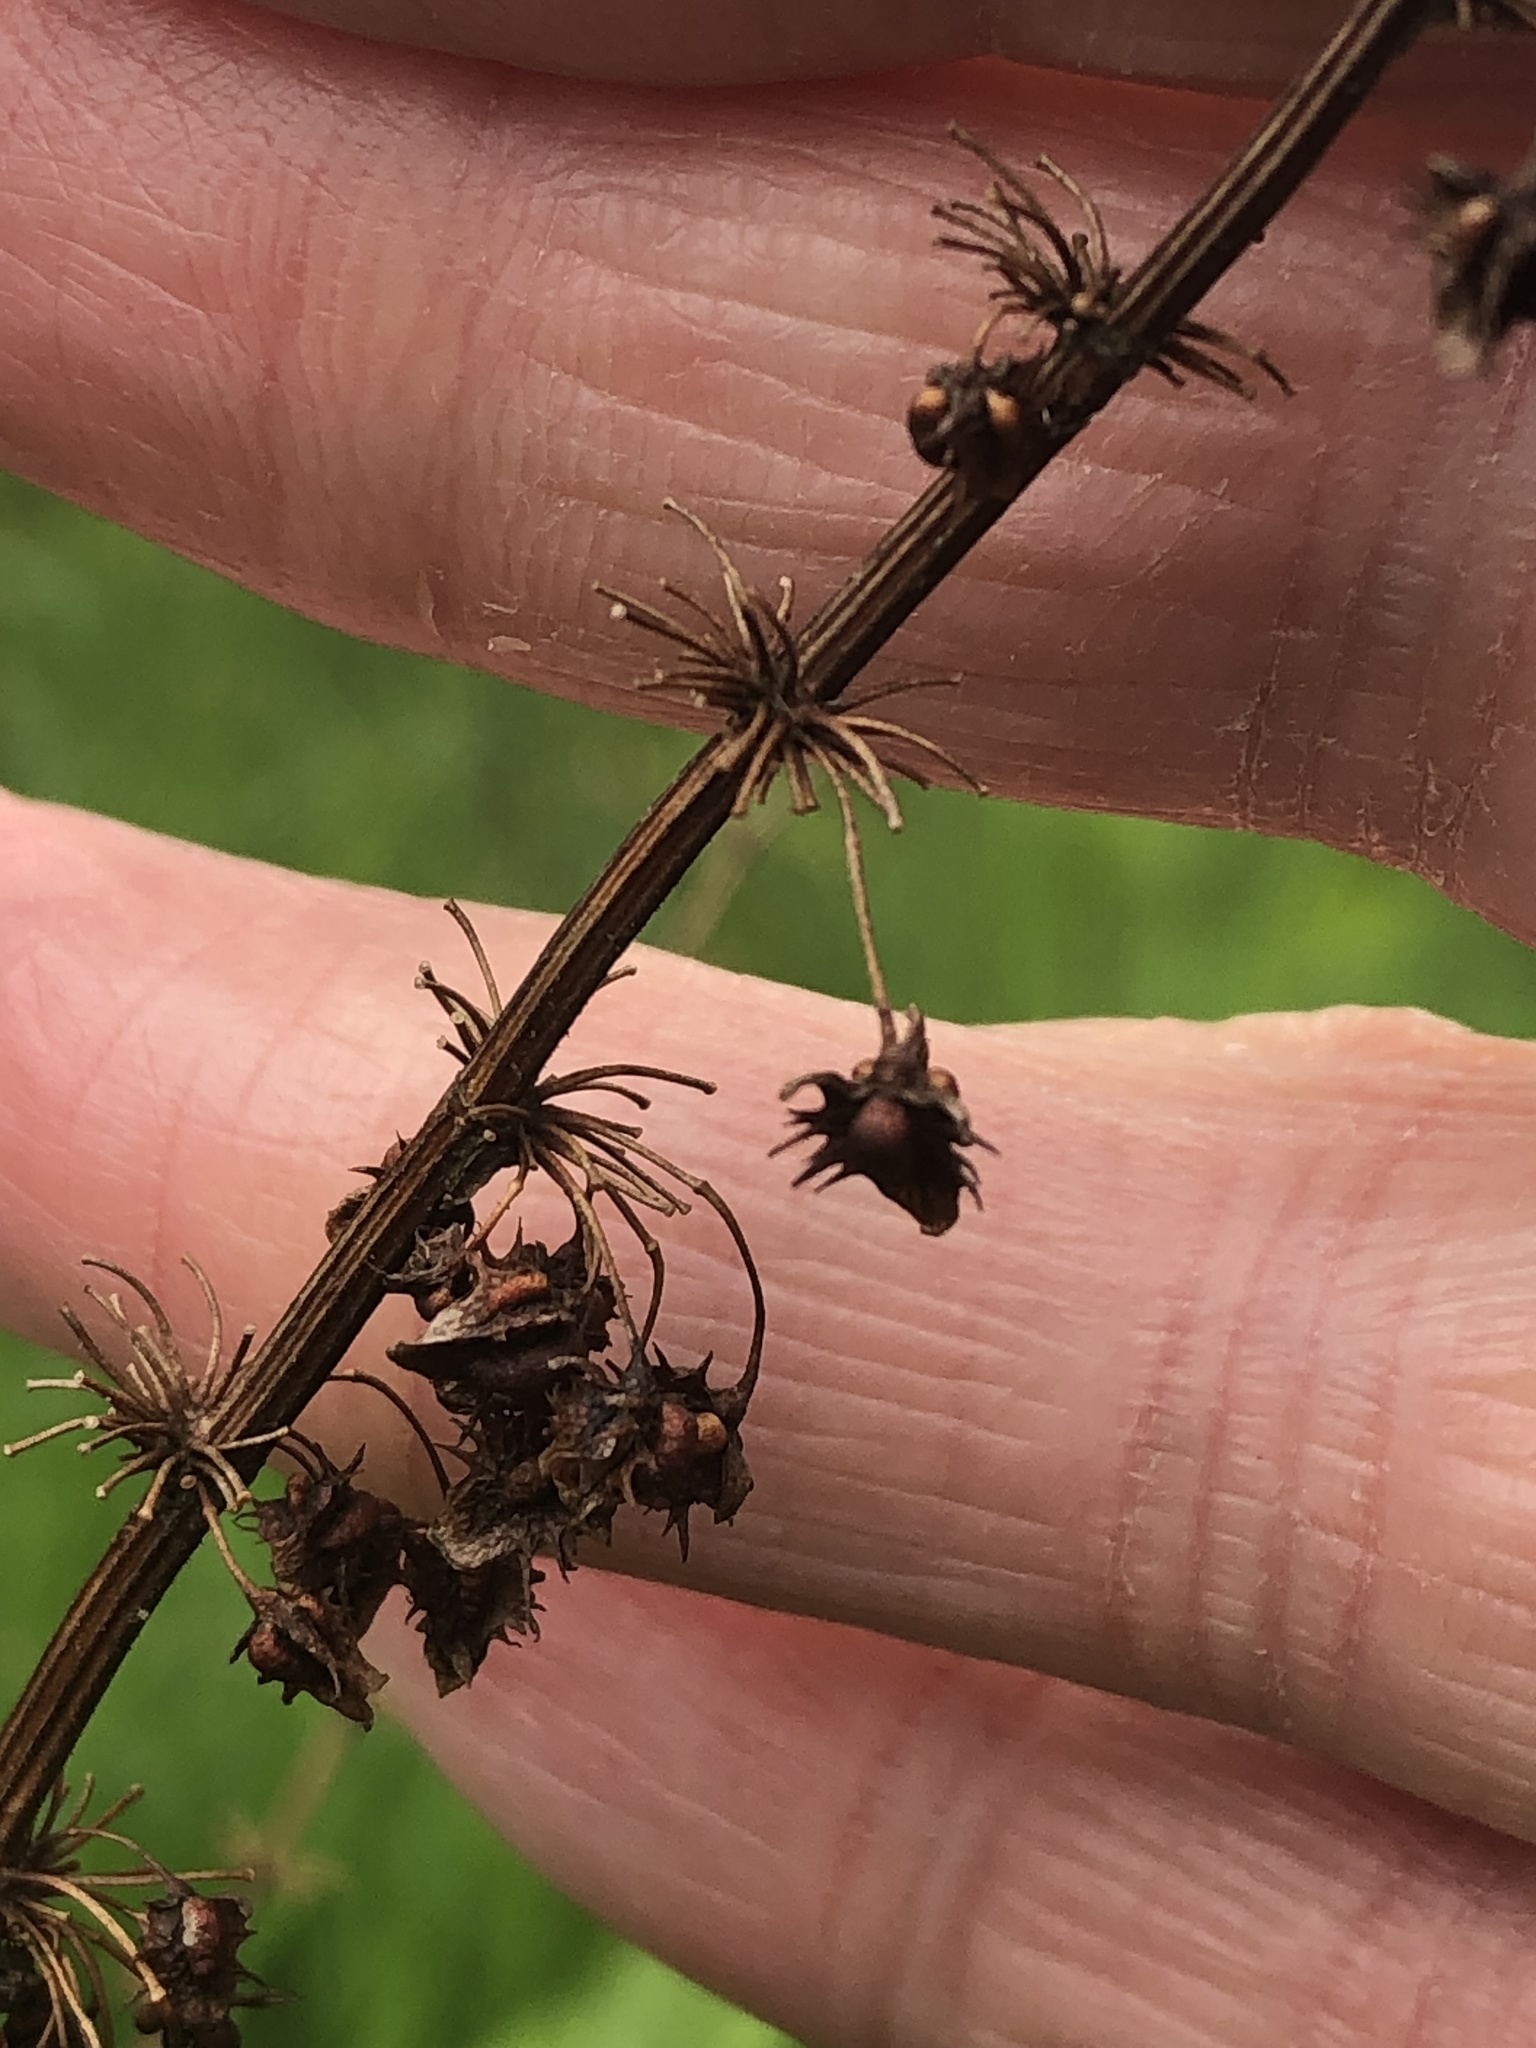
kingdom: Plantae
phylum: Tracheophyta
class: Magnoliopsida
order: Caryophyllales
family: Polygonaceae
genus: Rumex
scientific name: Rumex obtusifolius
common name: Bitter dock
